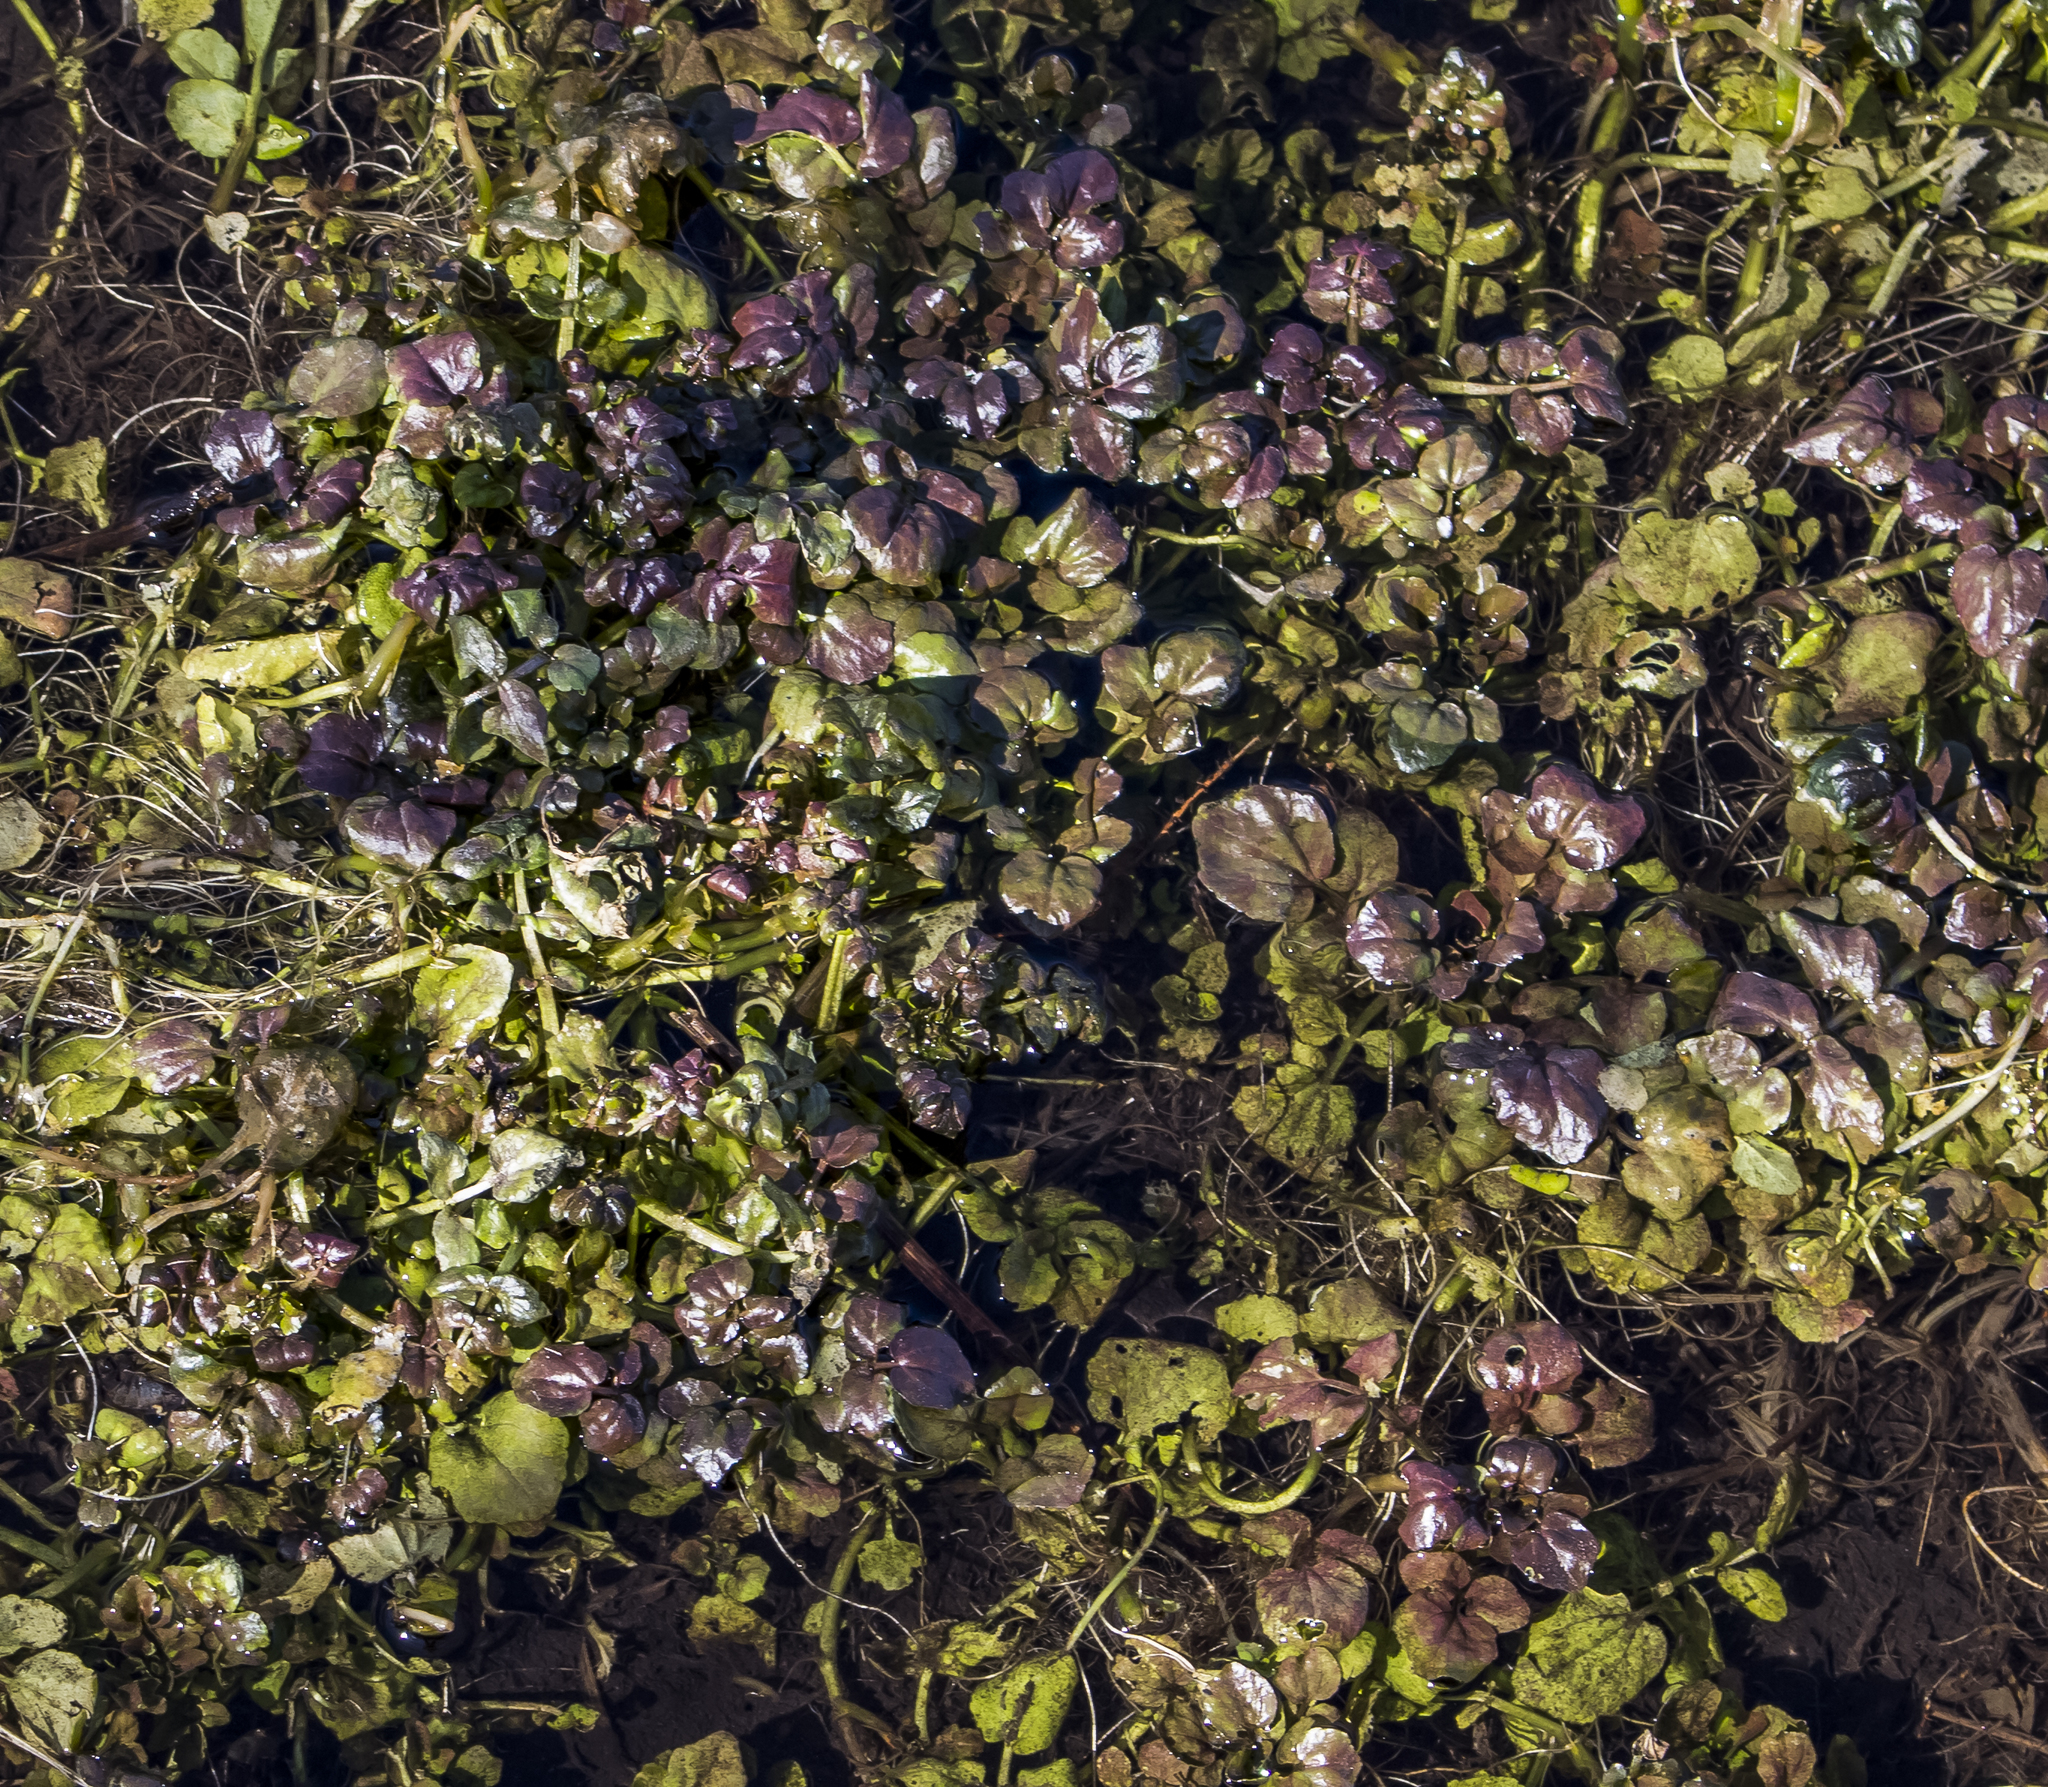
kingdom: Plantae
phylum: Tracheophyta
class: Magnoliopsida
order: Brassicales
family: Brassicaceae
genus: Nasturtium
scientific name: Nasturtium officinale
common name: Watercress
